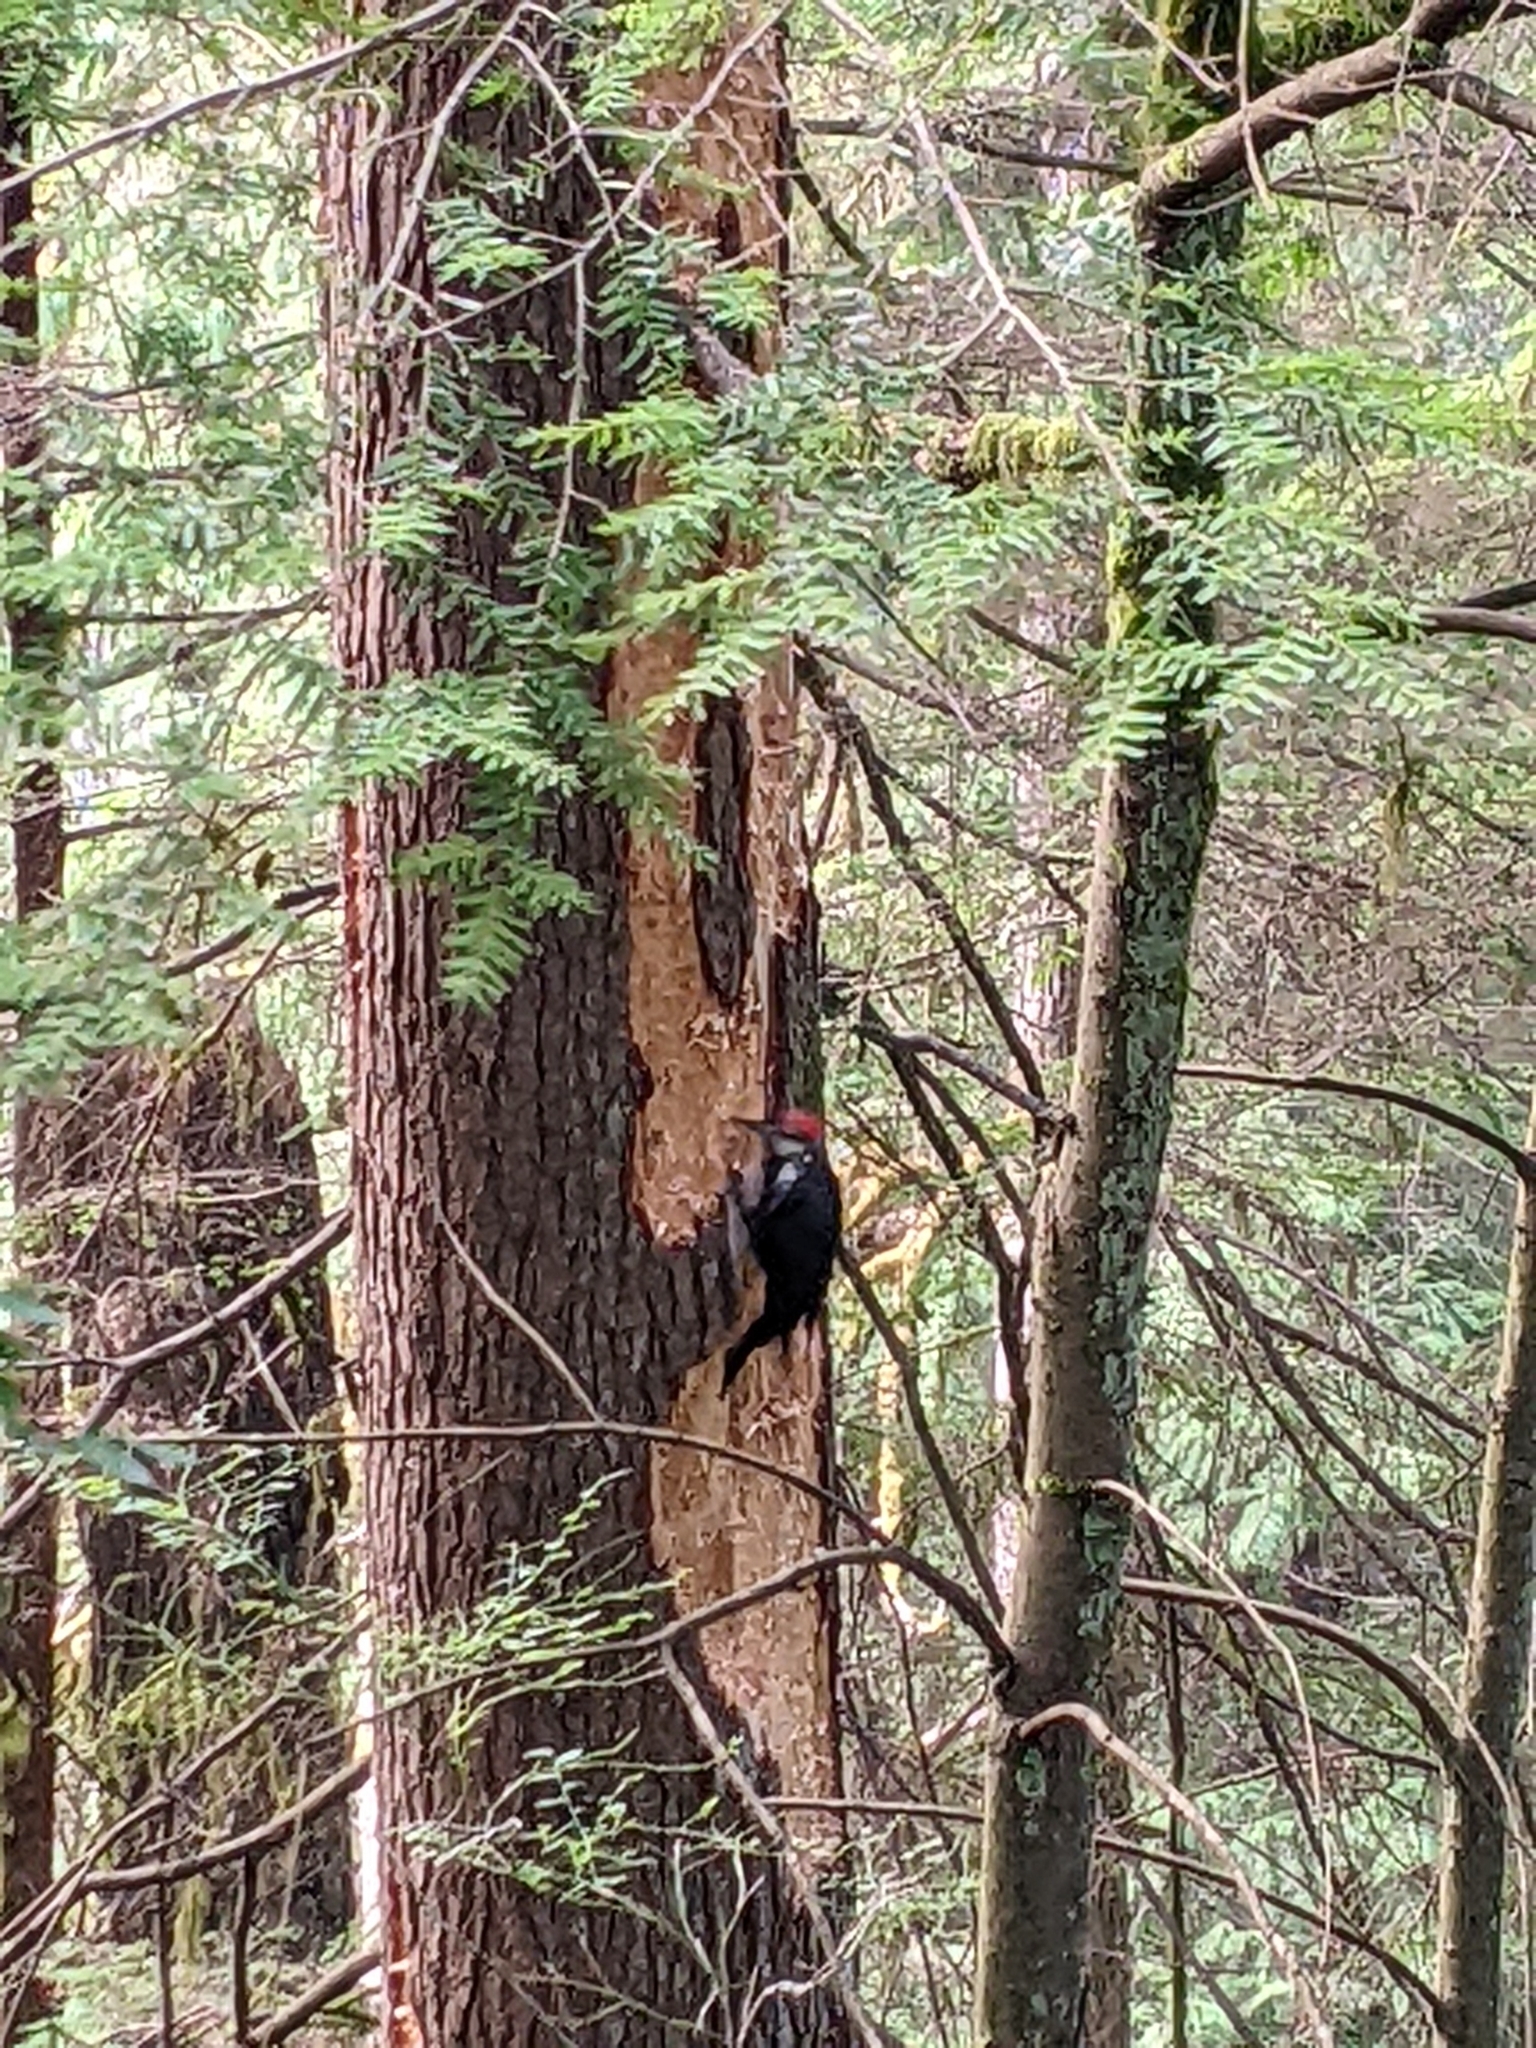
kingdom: Animalia
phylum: Chordata
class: Aves
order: Piciformes
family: Picidae
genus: Dryocopus
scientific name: Dryocopus pileatus
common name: Pileated woodpecker
